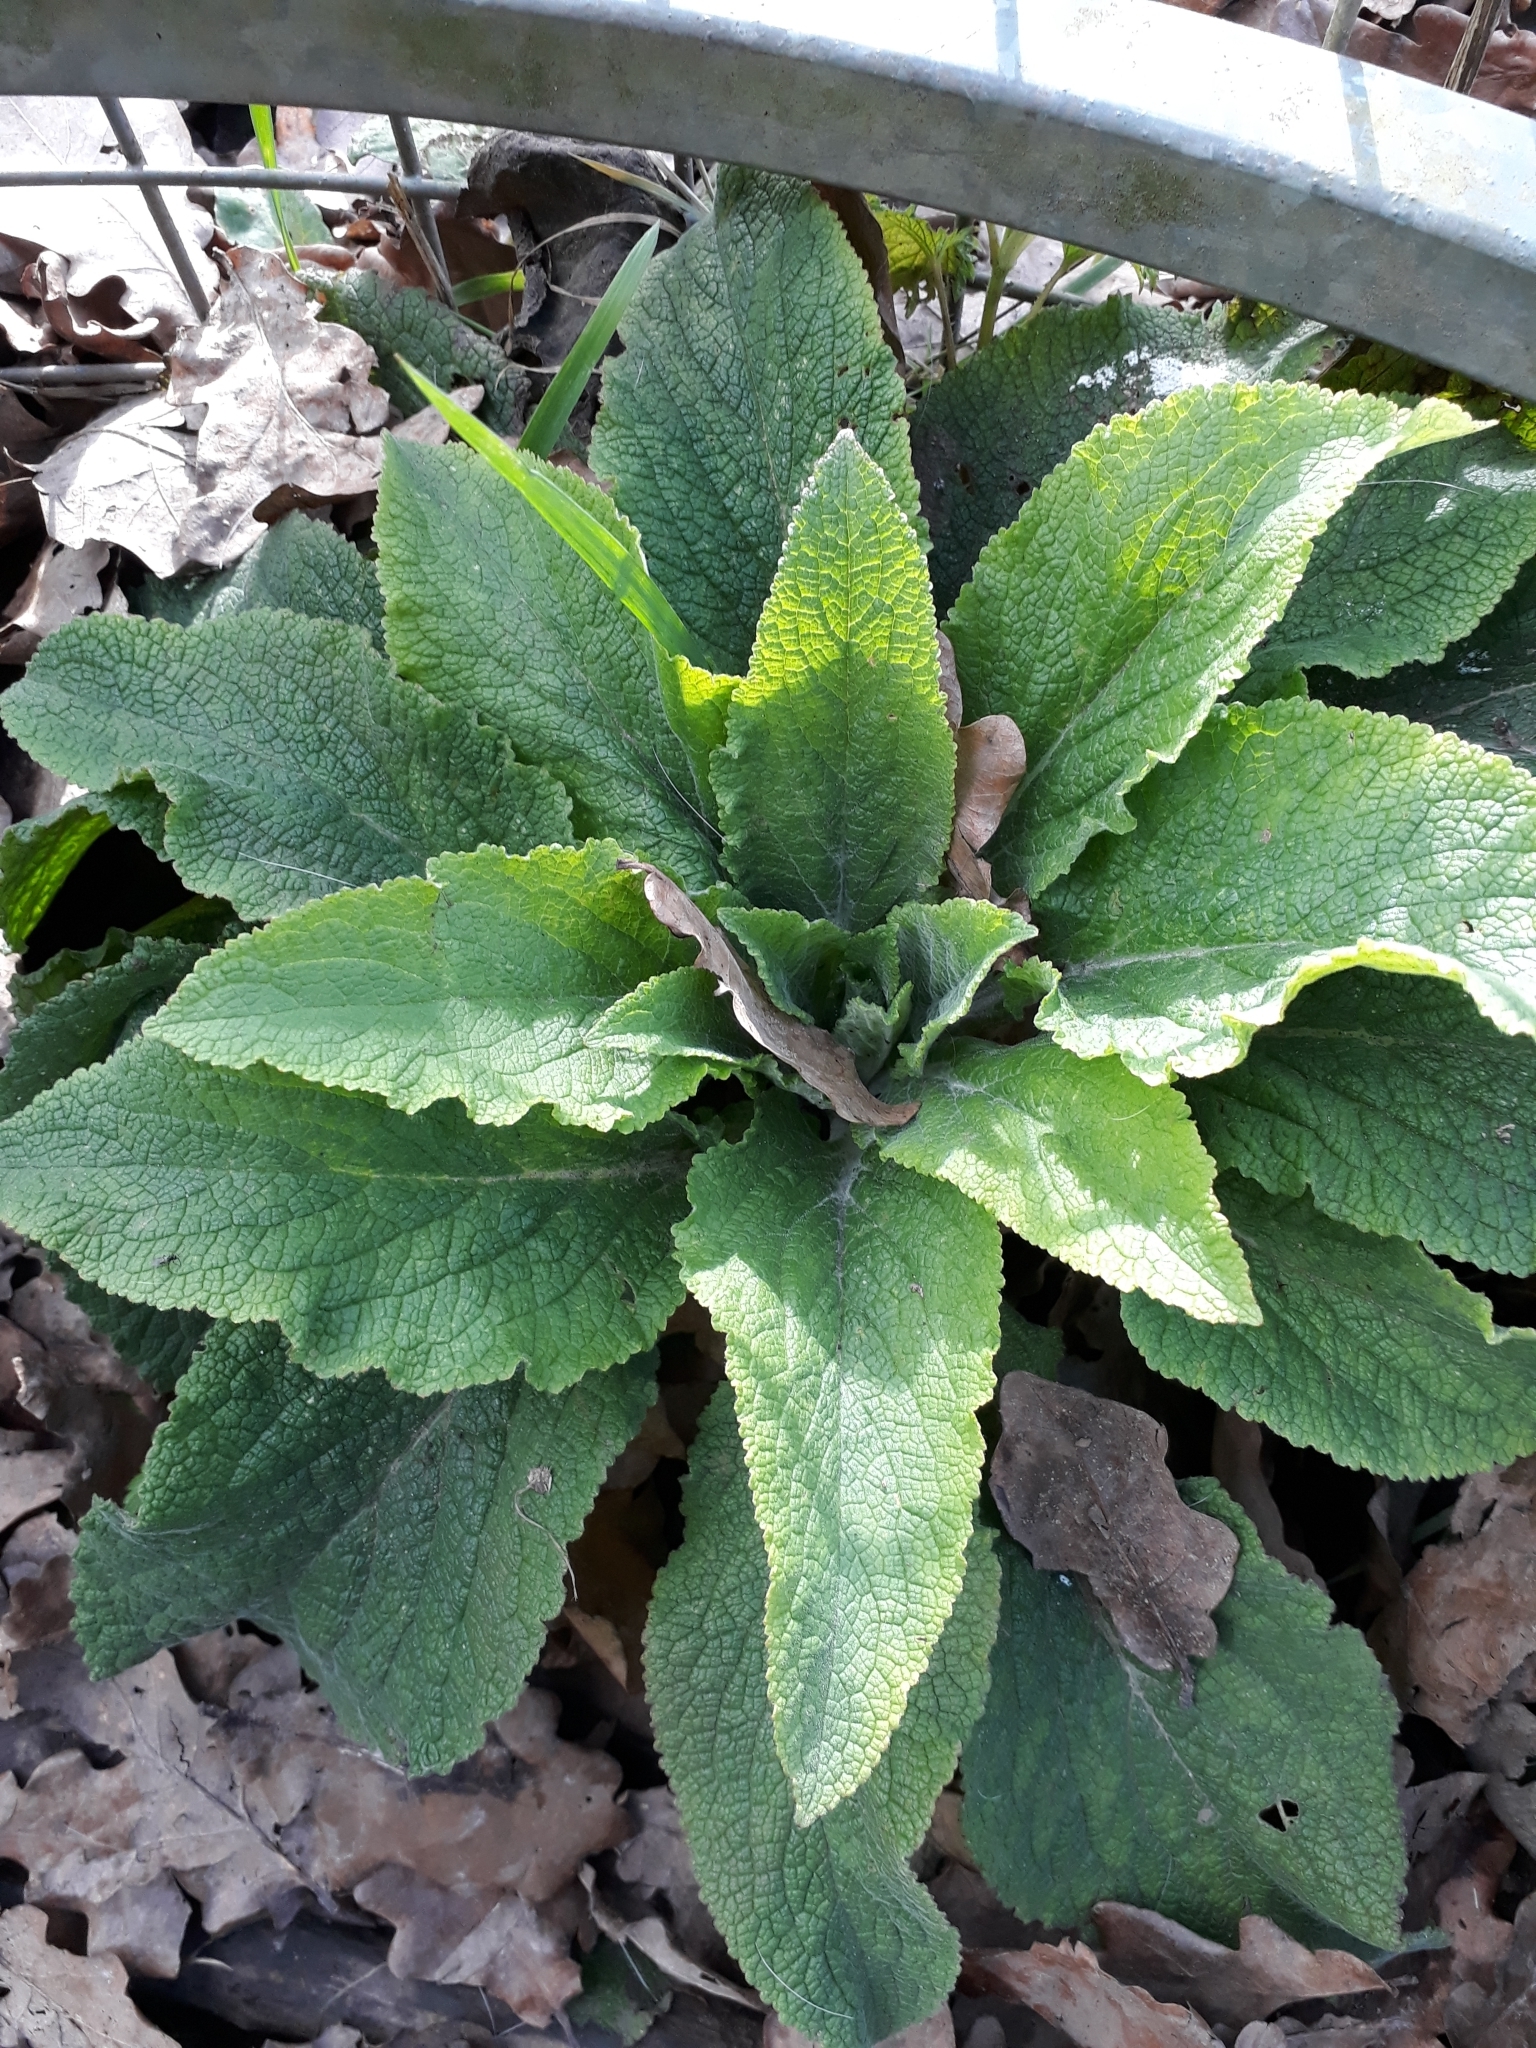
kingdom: Plantae
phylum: Tracheophyta
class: Magnoliopsida
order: Lamiales
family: Plantaginaceae
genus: Digitalis
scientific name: Digitalis purpurea
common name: Foxglove
